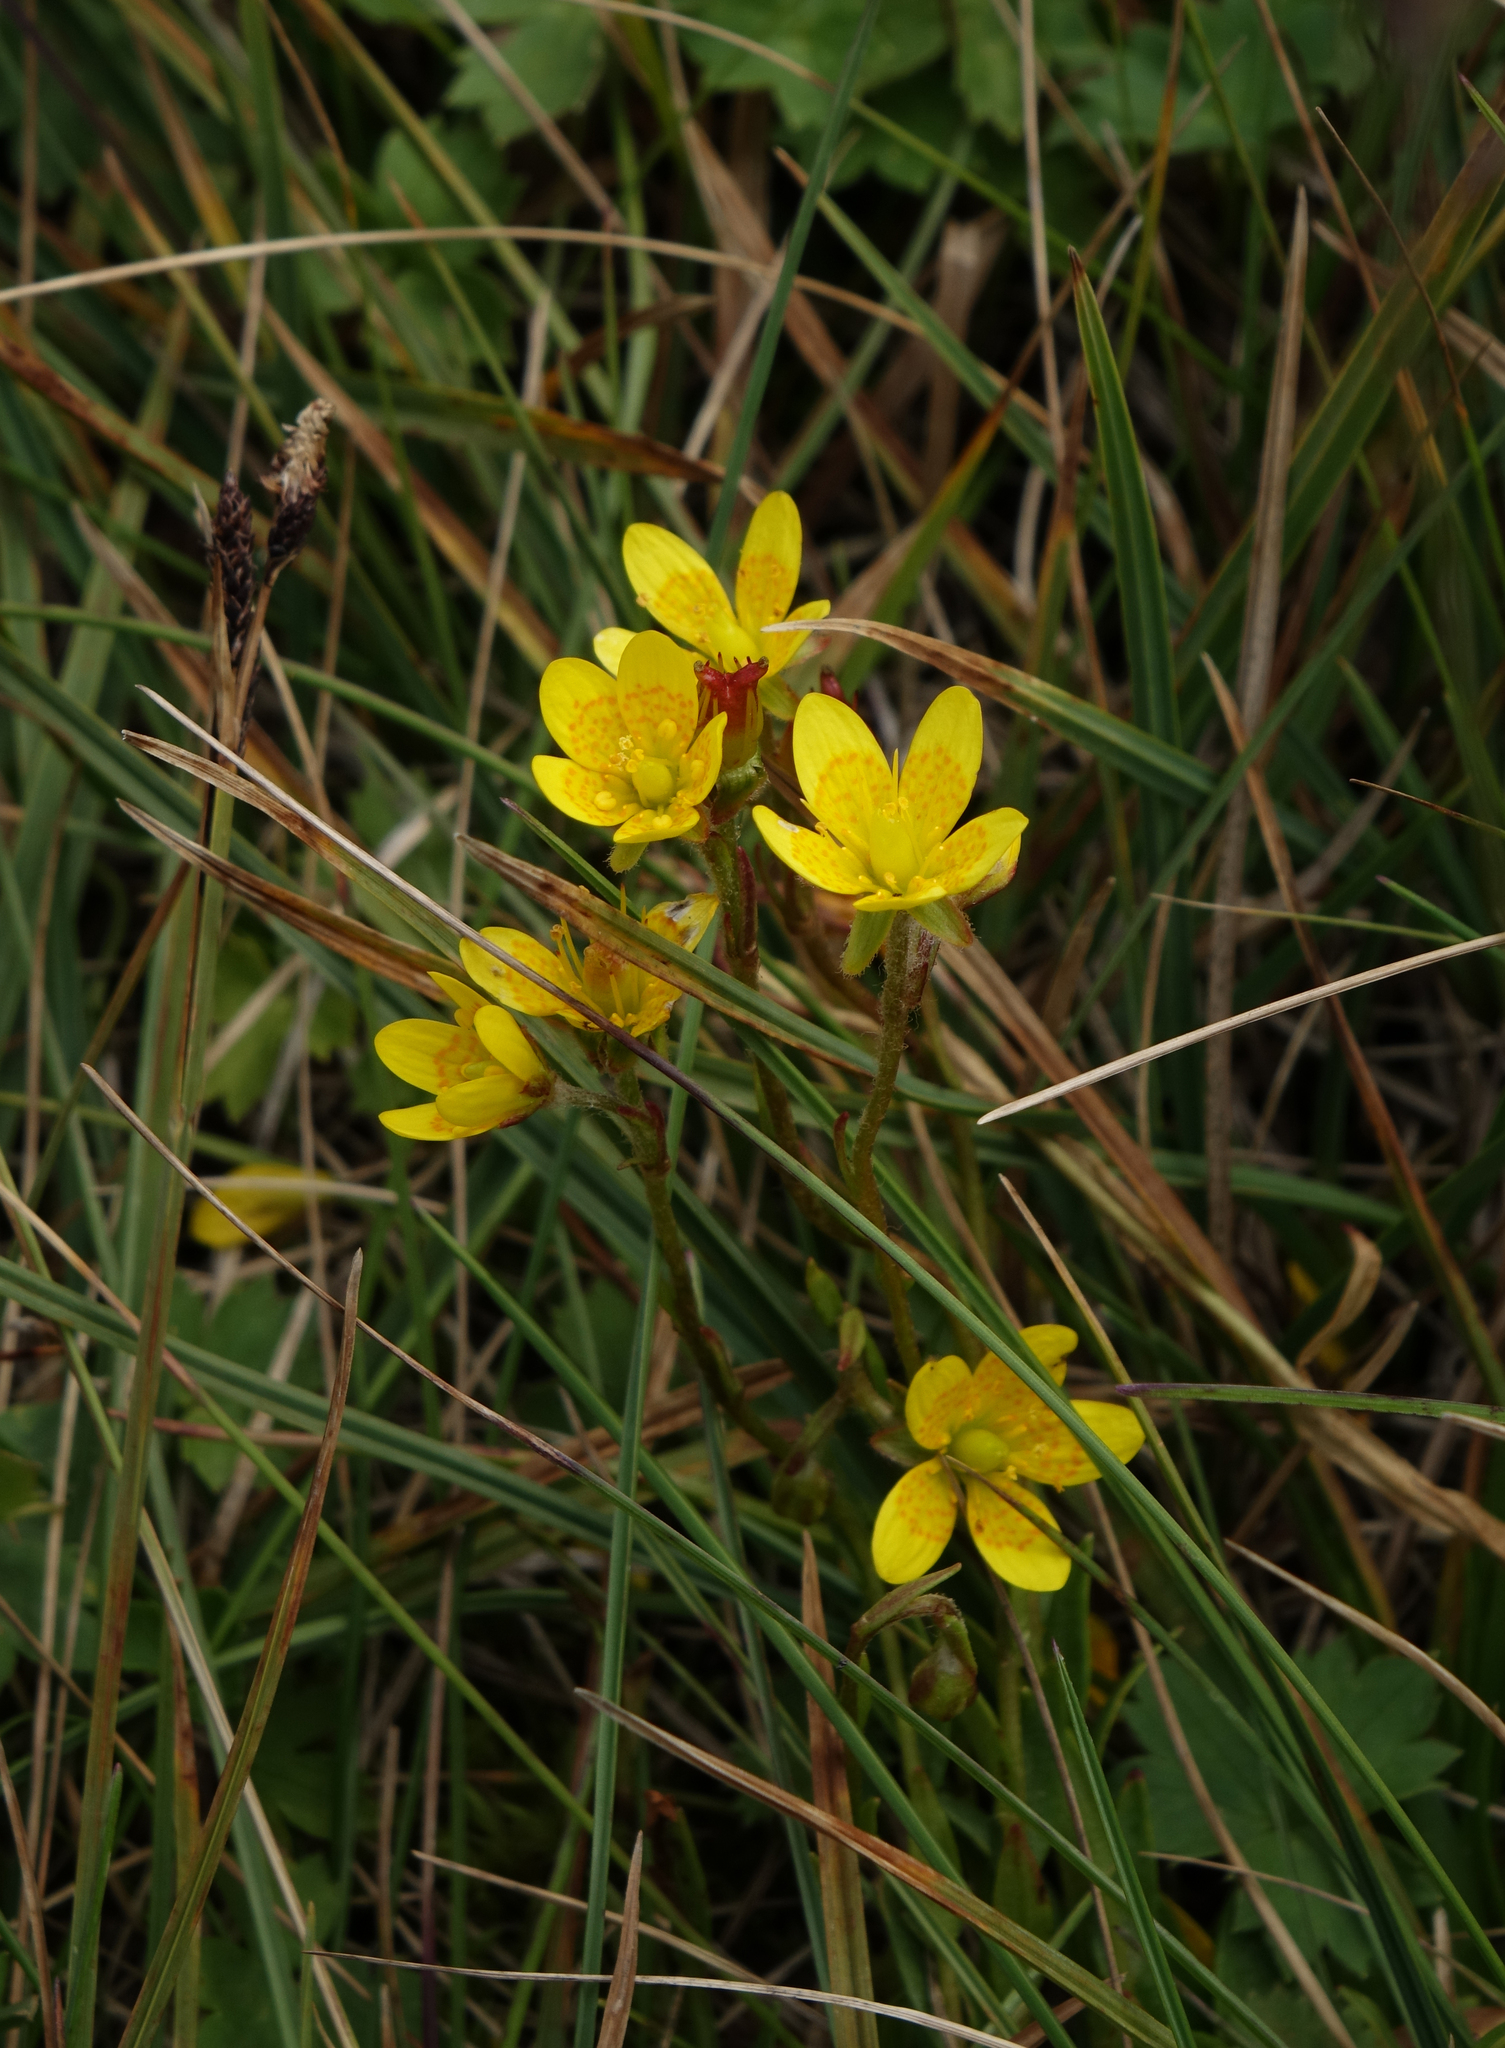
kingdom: Plantae
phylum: Tracheophyta
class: Magnoliopsida
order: Saxifragales
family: Saxifragaceae
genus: Saxifraga
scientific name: Saxifraga hirculus
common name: Yellow marsh saxifrage
